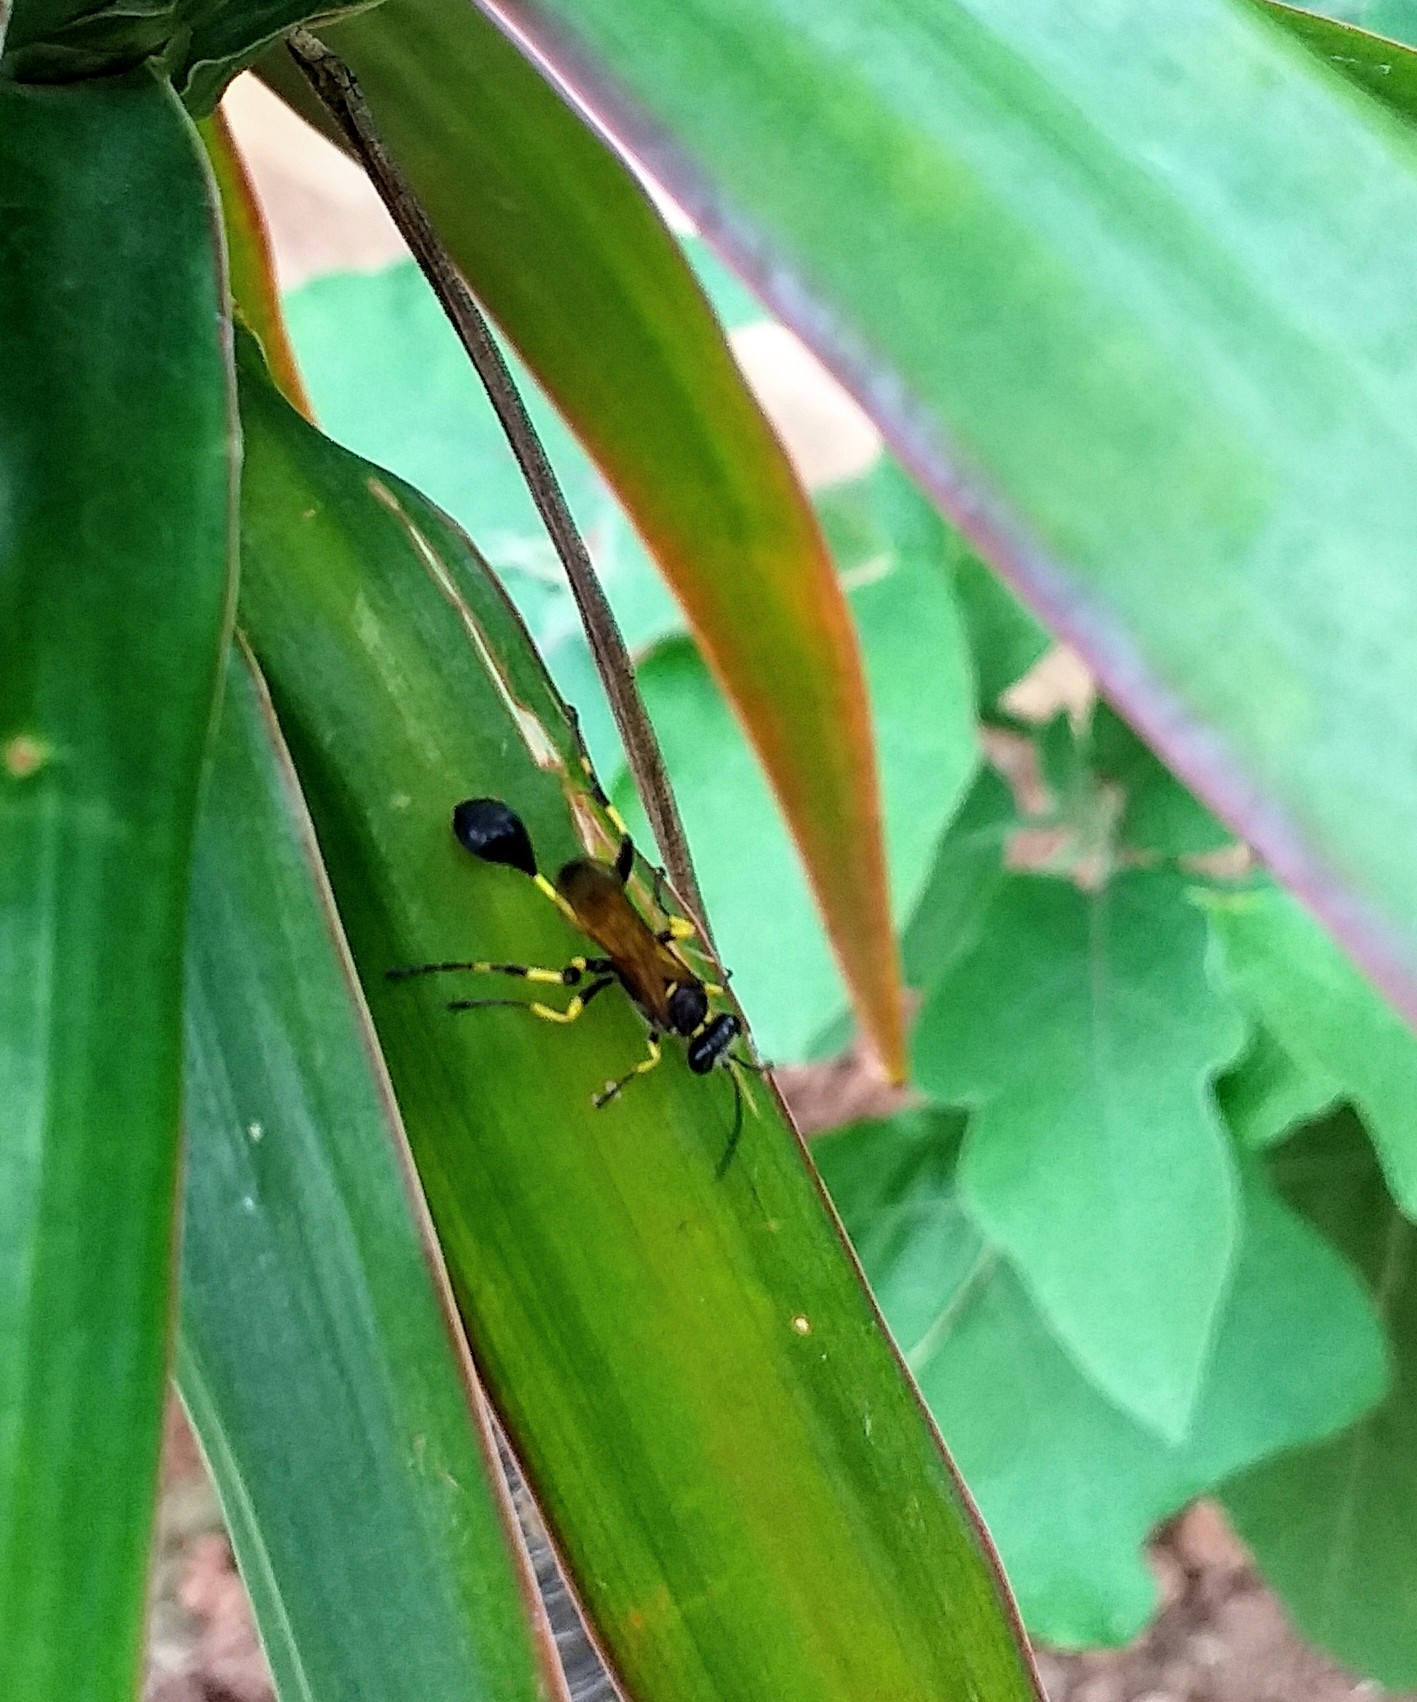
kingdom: Animalia
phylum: Arthropoda
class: Insecta
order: Hymenoptera
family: Sphecidae
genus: Sceliphron
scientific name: Sceliphron madraspatanum
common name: Mud dauber
